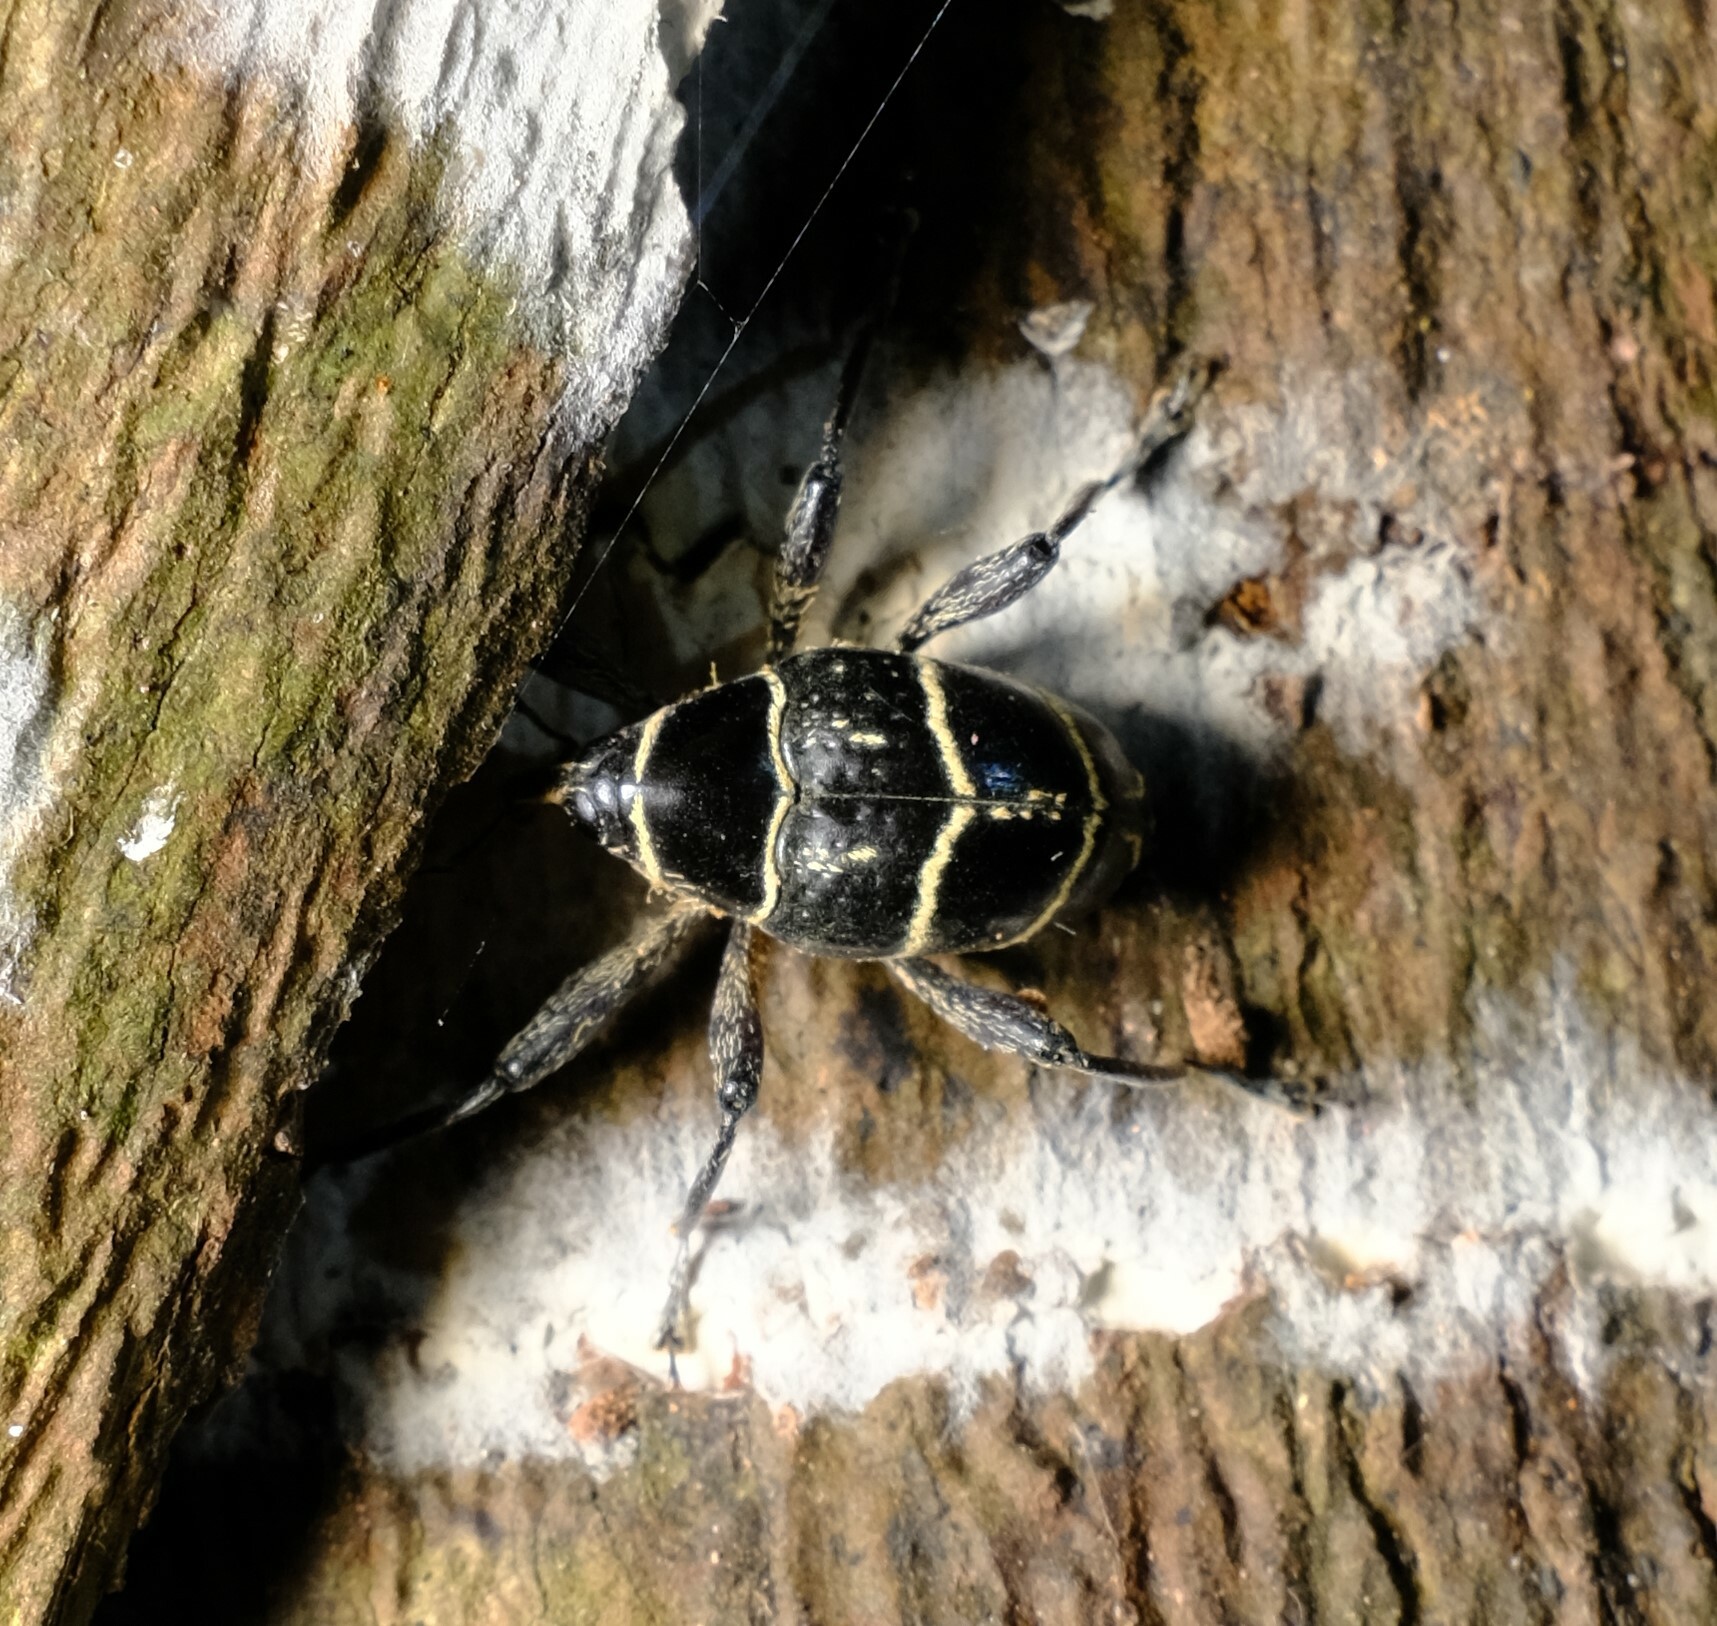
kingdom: Animalia
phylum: Arthropoda
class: Insecta
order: Coleoptera
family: Curculionidae
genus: Enteles
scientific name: Enteles vigorsii
